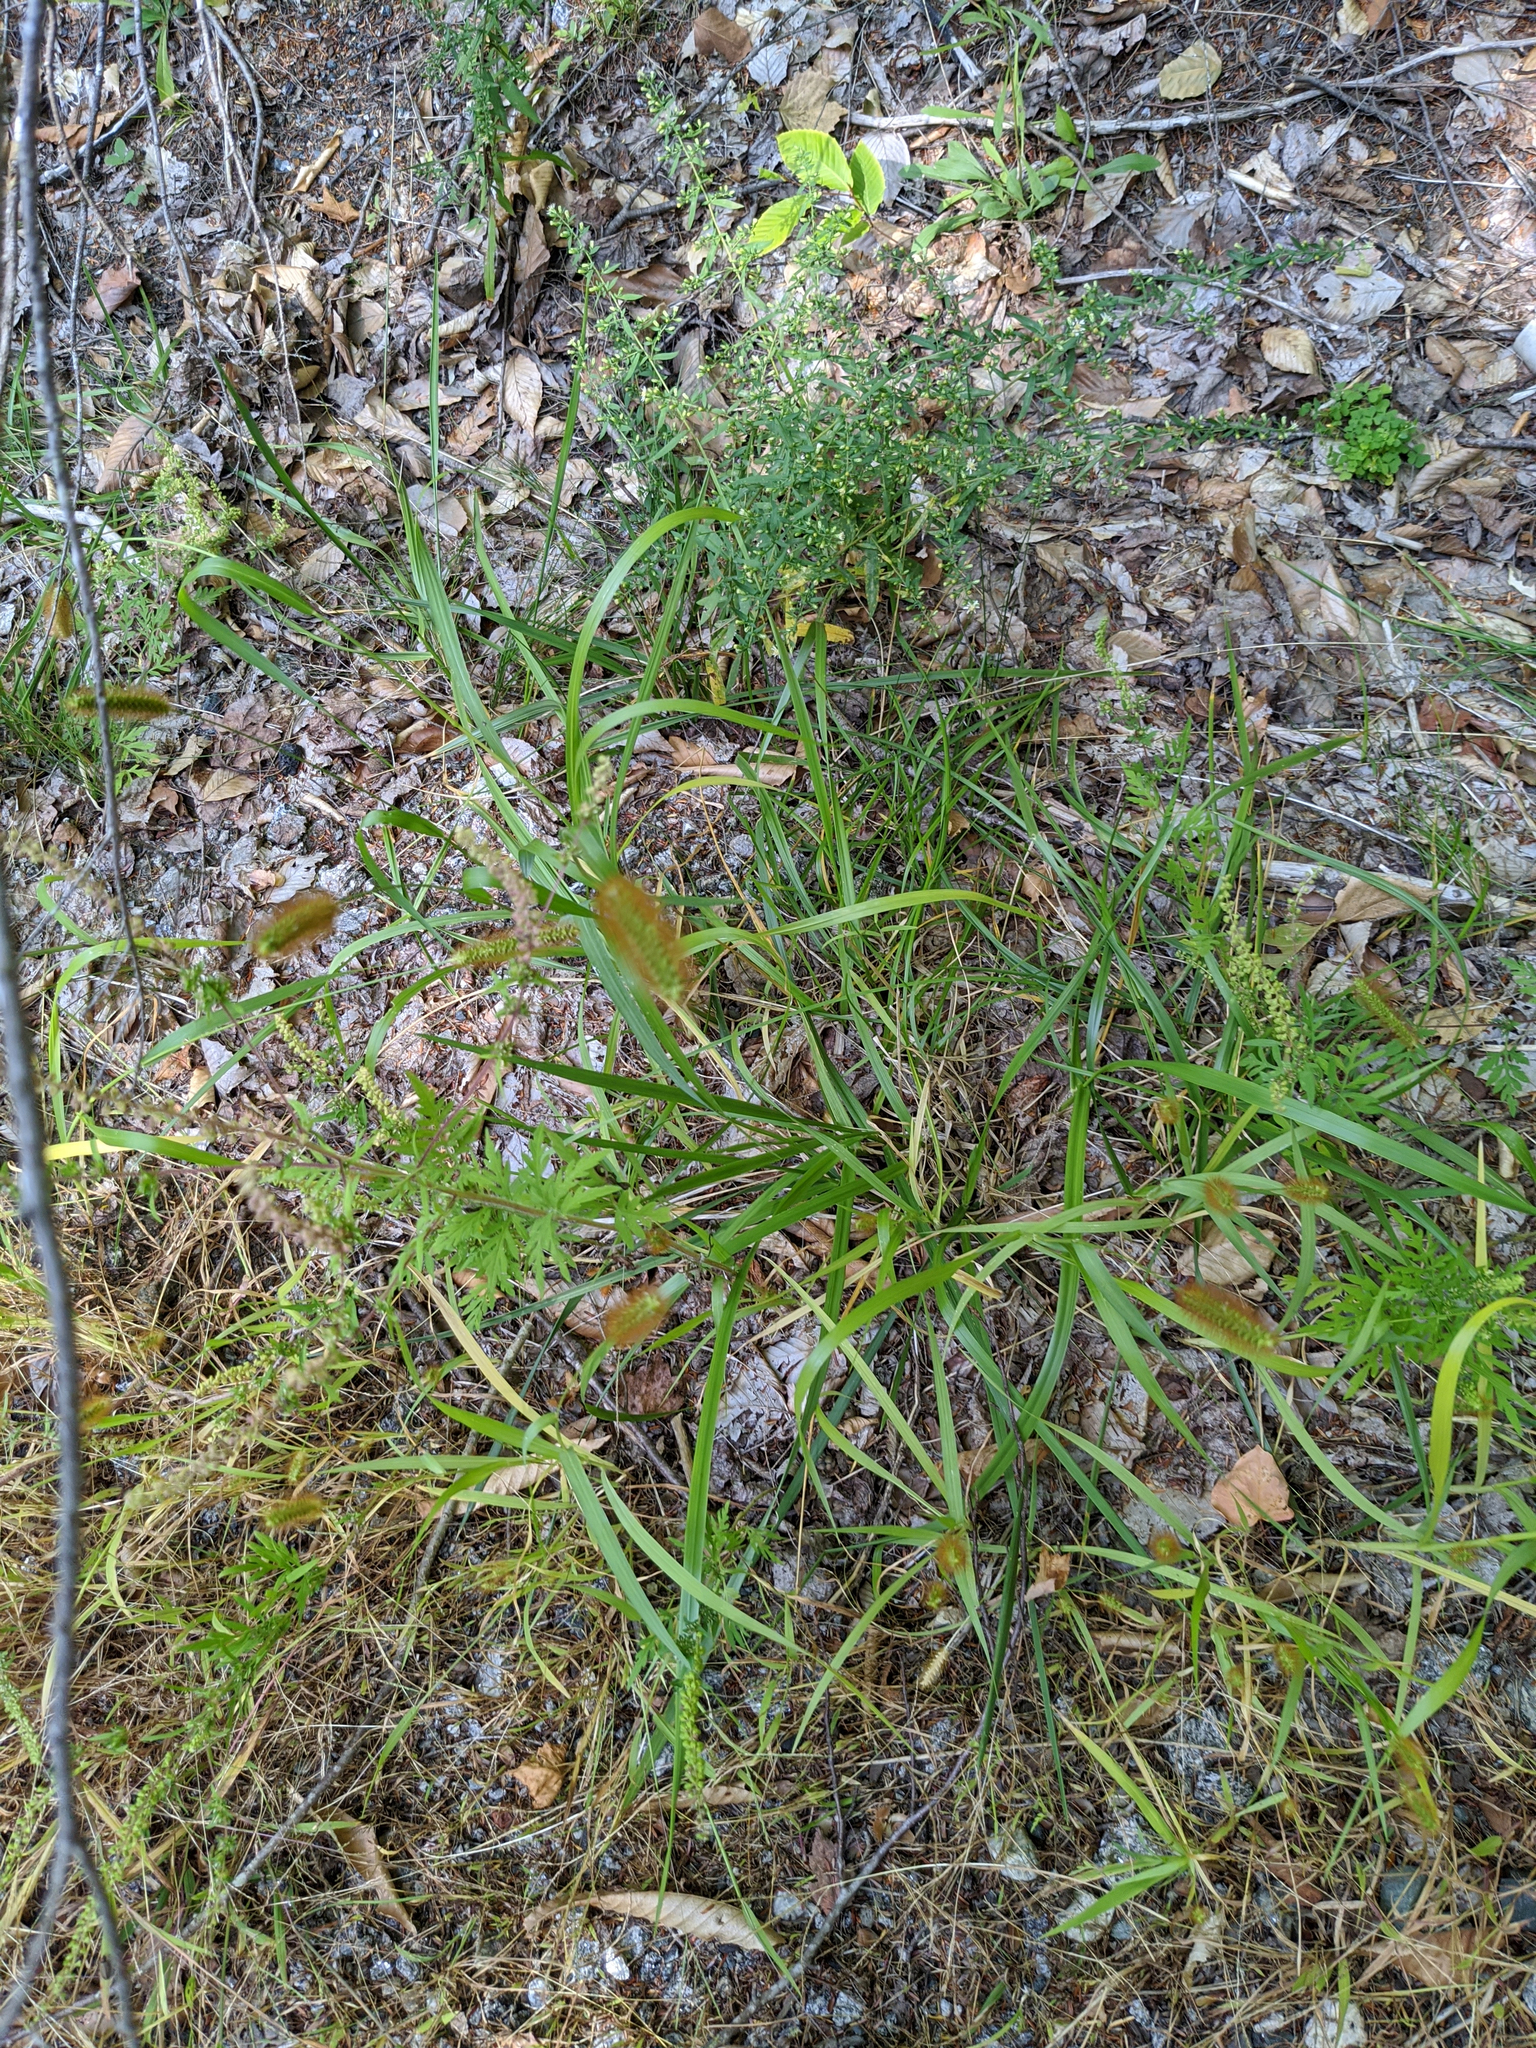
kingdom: Plantae
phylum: Tracheophyta
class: Liliopsida
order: Poales
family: Poaceae
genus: Setaria
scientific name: Setaria pumila
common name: Yellow bristle-grass
